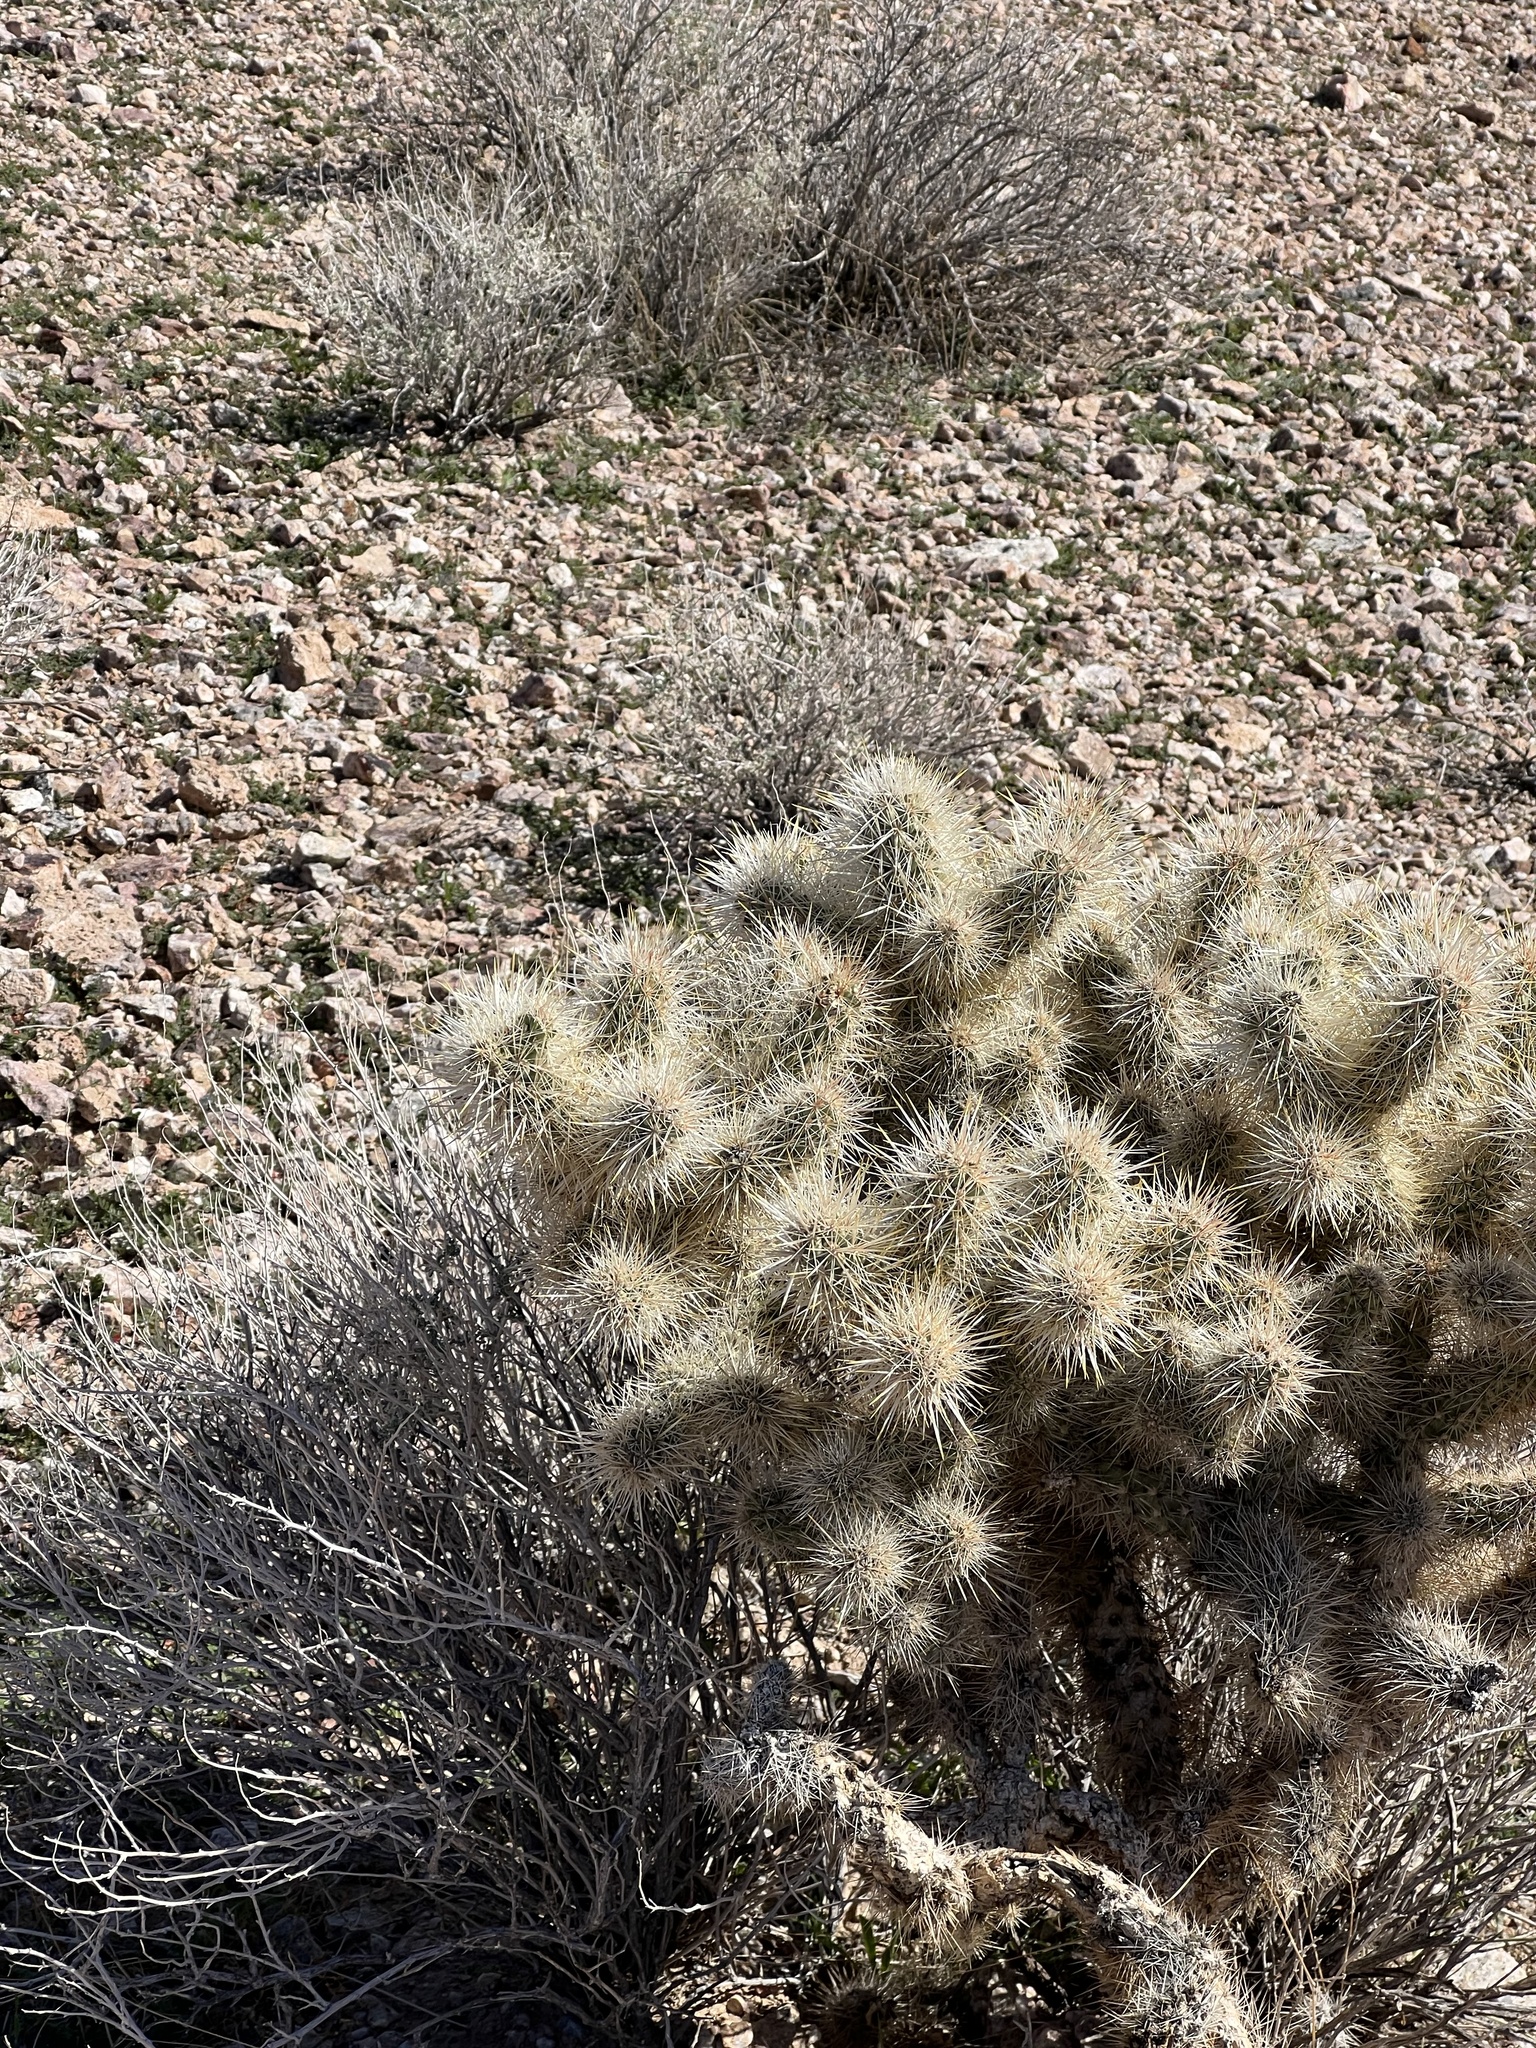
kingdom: Plantae
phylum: Tracheophyta
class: Magnoliopsida
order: Caryophyllales
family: Cactaceae
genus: Cylindropuntia
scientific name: Cylindropuntia echinocarpa
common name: Ground cholla
